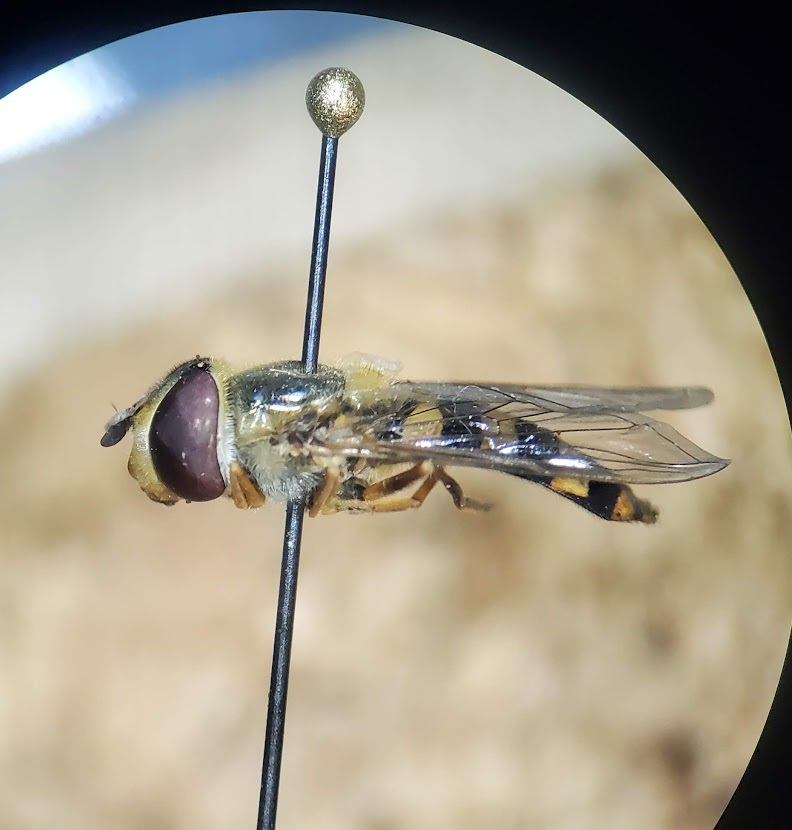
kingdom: Animalia
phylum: Arthropoda
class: Insecta
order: Diptera
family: Syrphidae
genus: Eupeodes
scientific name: Eupeodes
